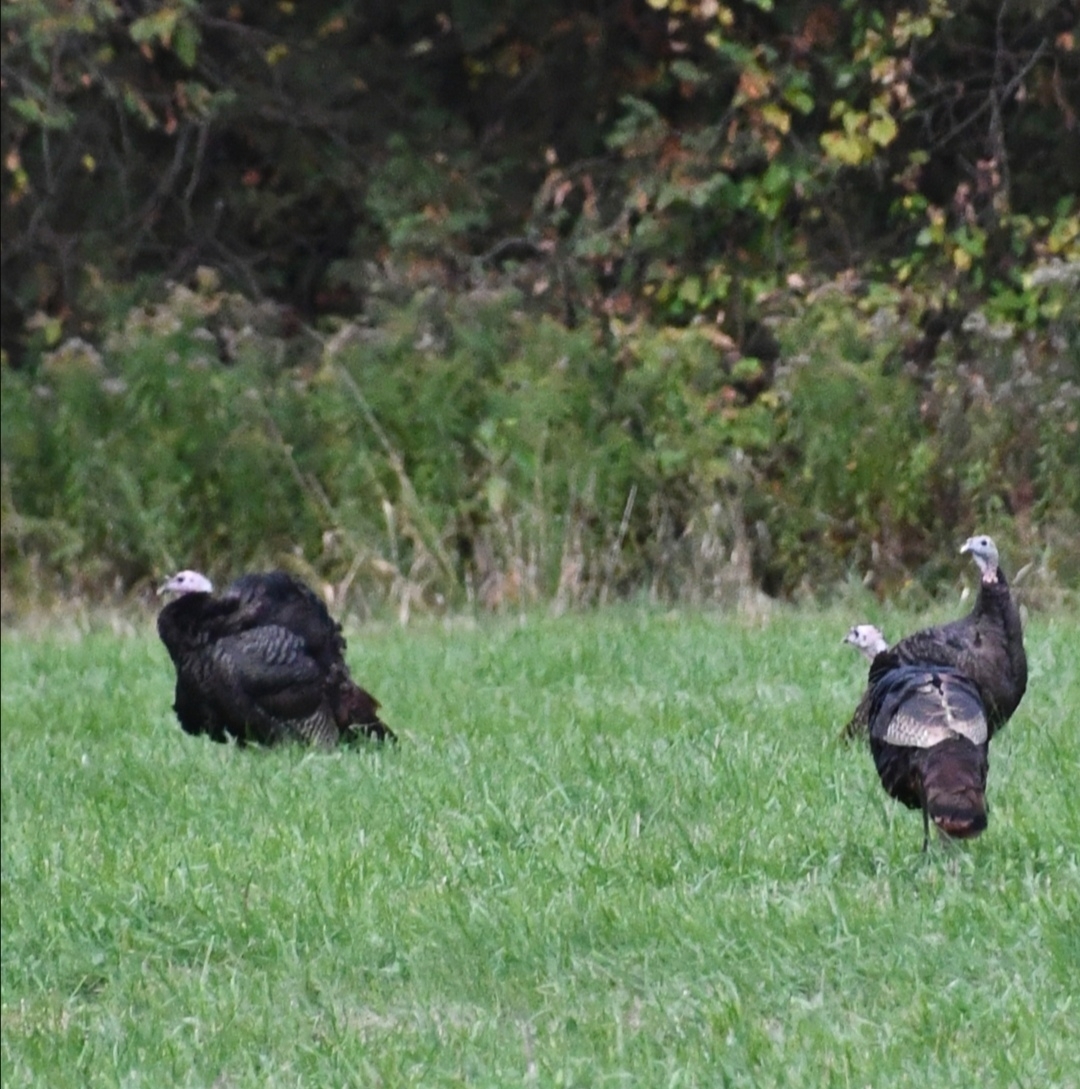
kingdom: Animalia
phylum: Chordata
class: Aves
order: Galliformes
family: Phasianidae
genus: Meleagris
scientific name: Meleagris gallopavo
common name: Wild turkey
